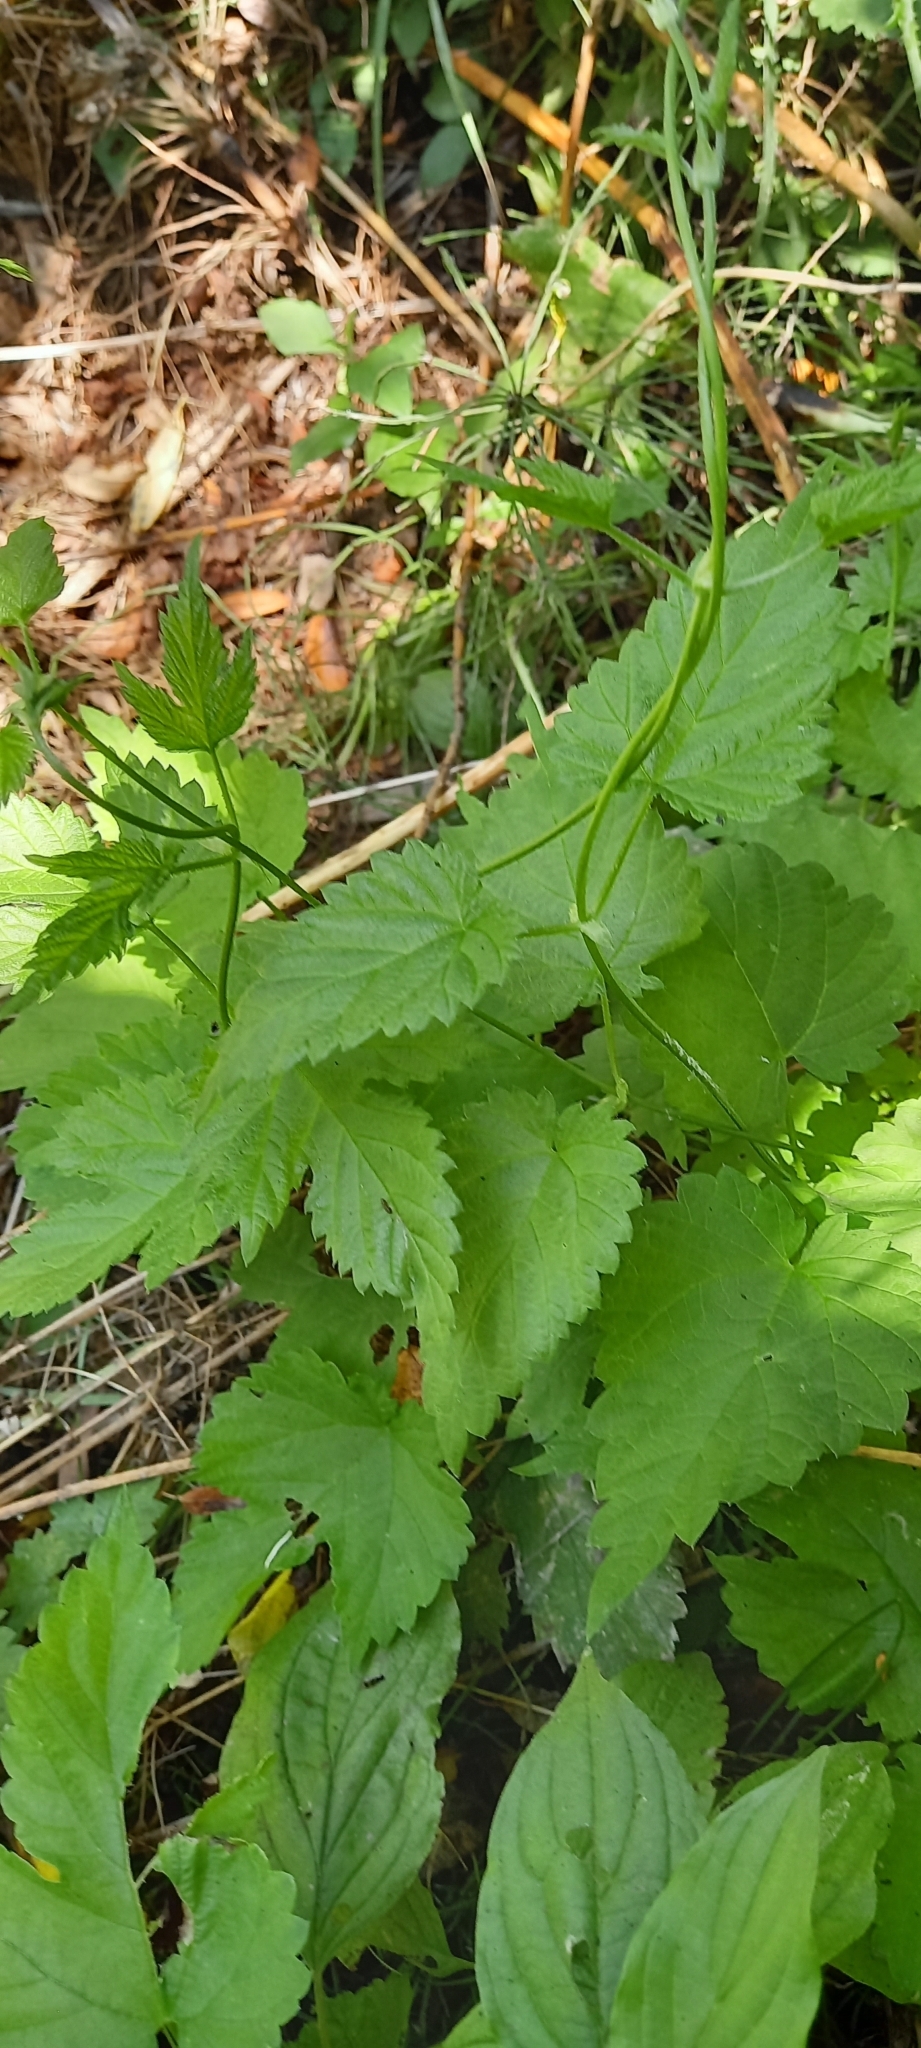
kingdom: Plantae
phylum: Tracheophyta
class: Magnoliopsida
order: Rosales
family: Cannabaceae
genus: Humulus
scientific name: Humulus lupulus
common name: Hop
